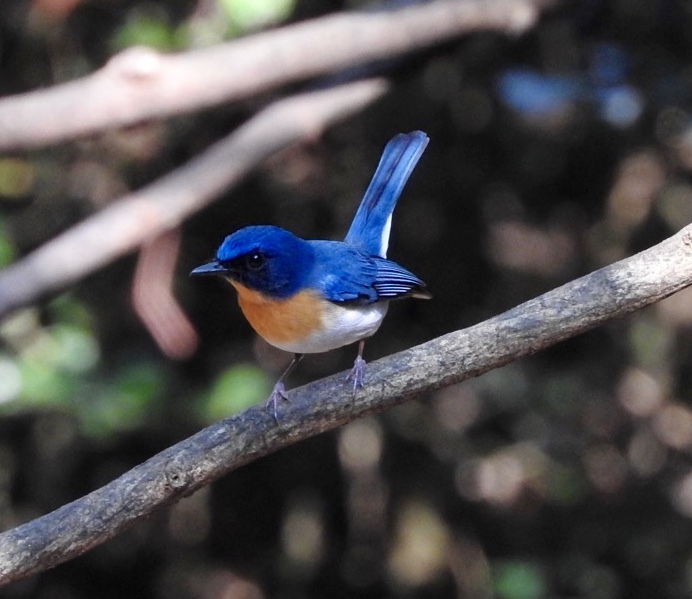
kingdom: Animalia
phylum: Chordata
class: Aves
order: Passeriformes
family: Muscicapidae
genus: Cyornis
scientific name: Cyornis tickelliae
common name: Tickell's blue flycatcher
